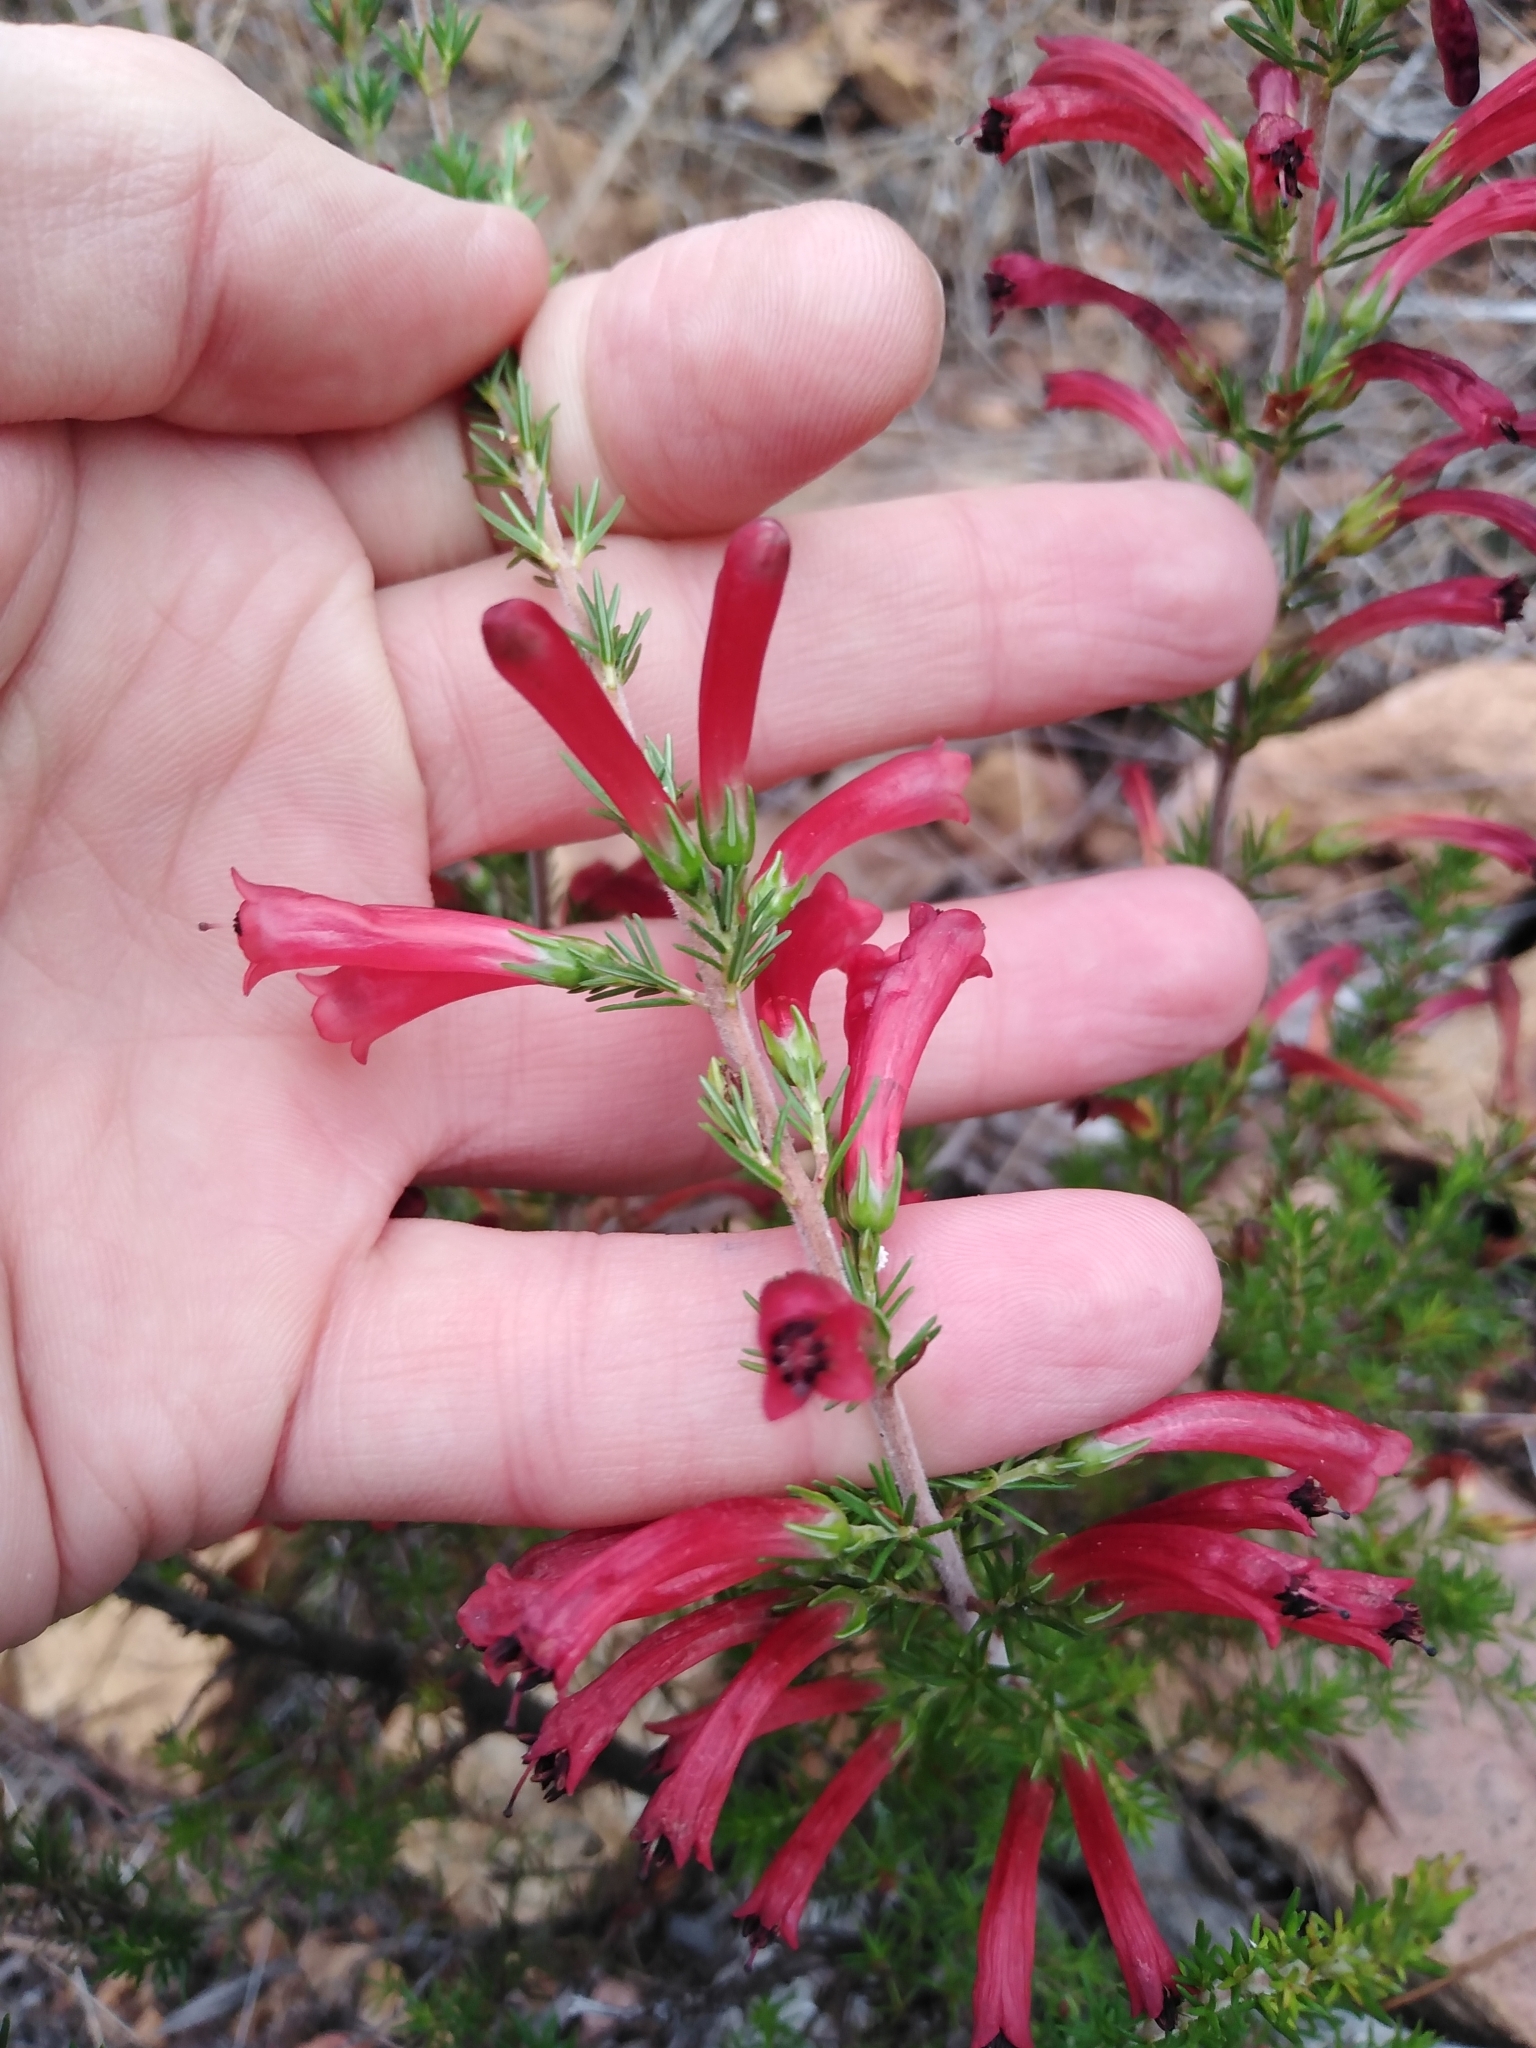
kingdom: Plantae
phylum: Tracheophyta
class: Magnoliopsida
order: Ericales
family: Ericaceae
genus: Erica
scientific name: Erica cruenta
